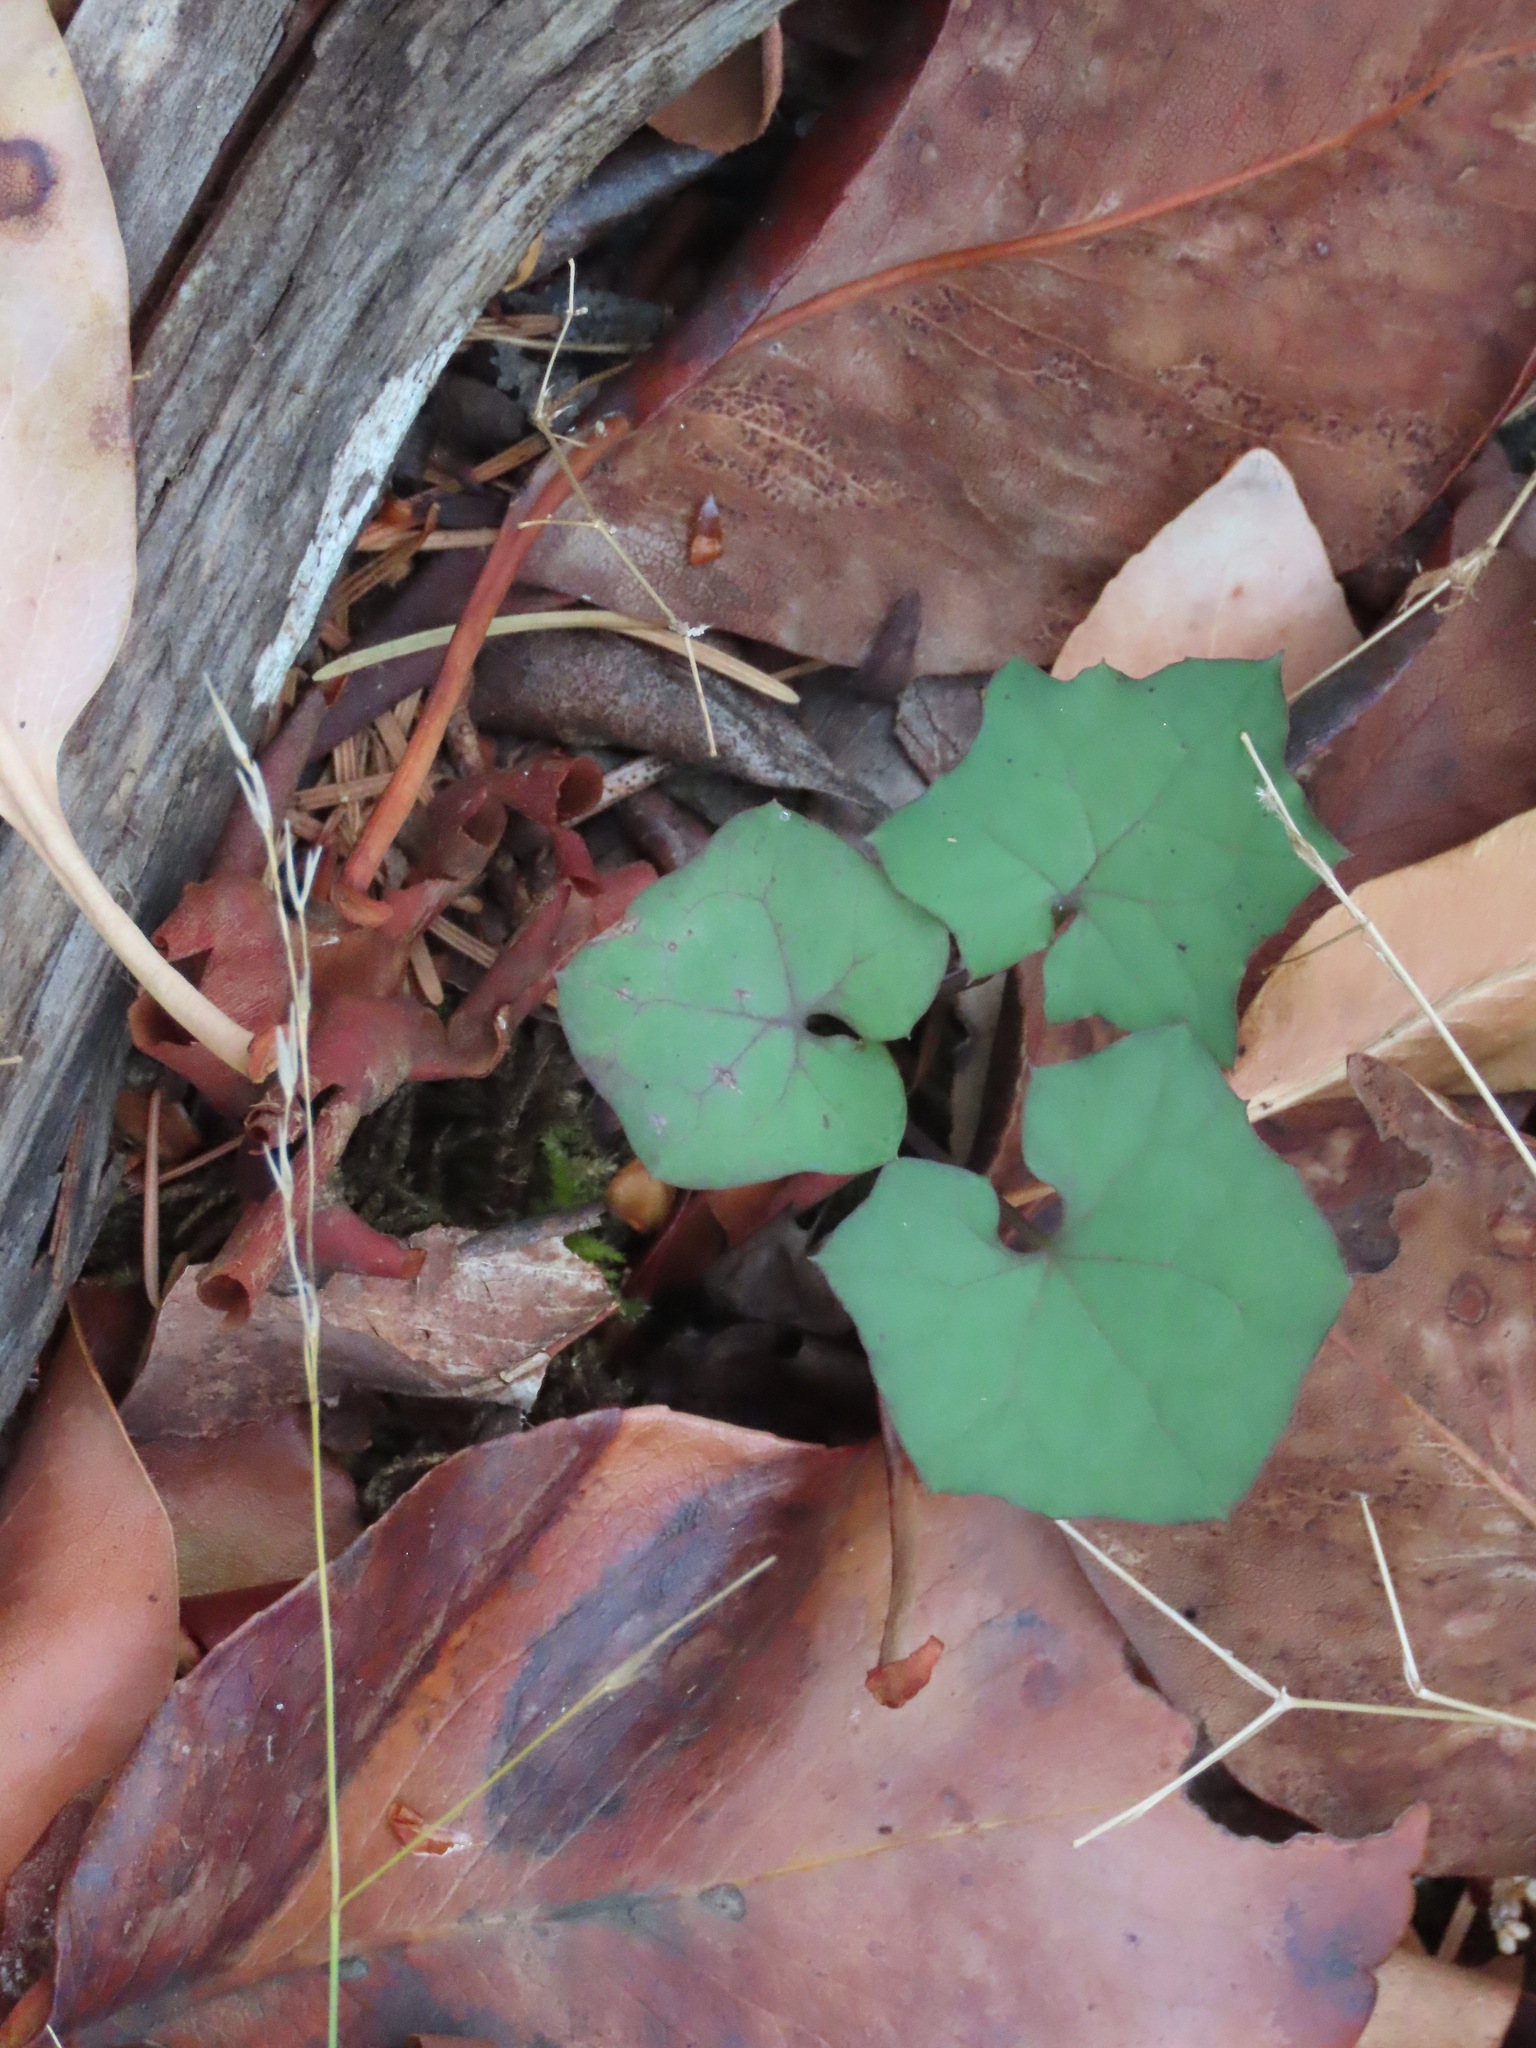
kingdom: Plantae
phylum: Tracheophyta
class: Magnoliopsida
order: Asterales
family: Asteraceae
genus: Mycelis
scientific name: Mycelis muralis
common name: Wall lettuce
